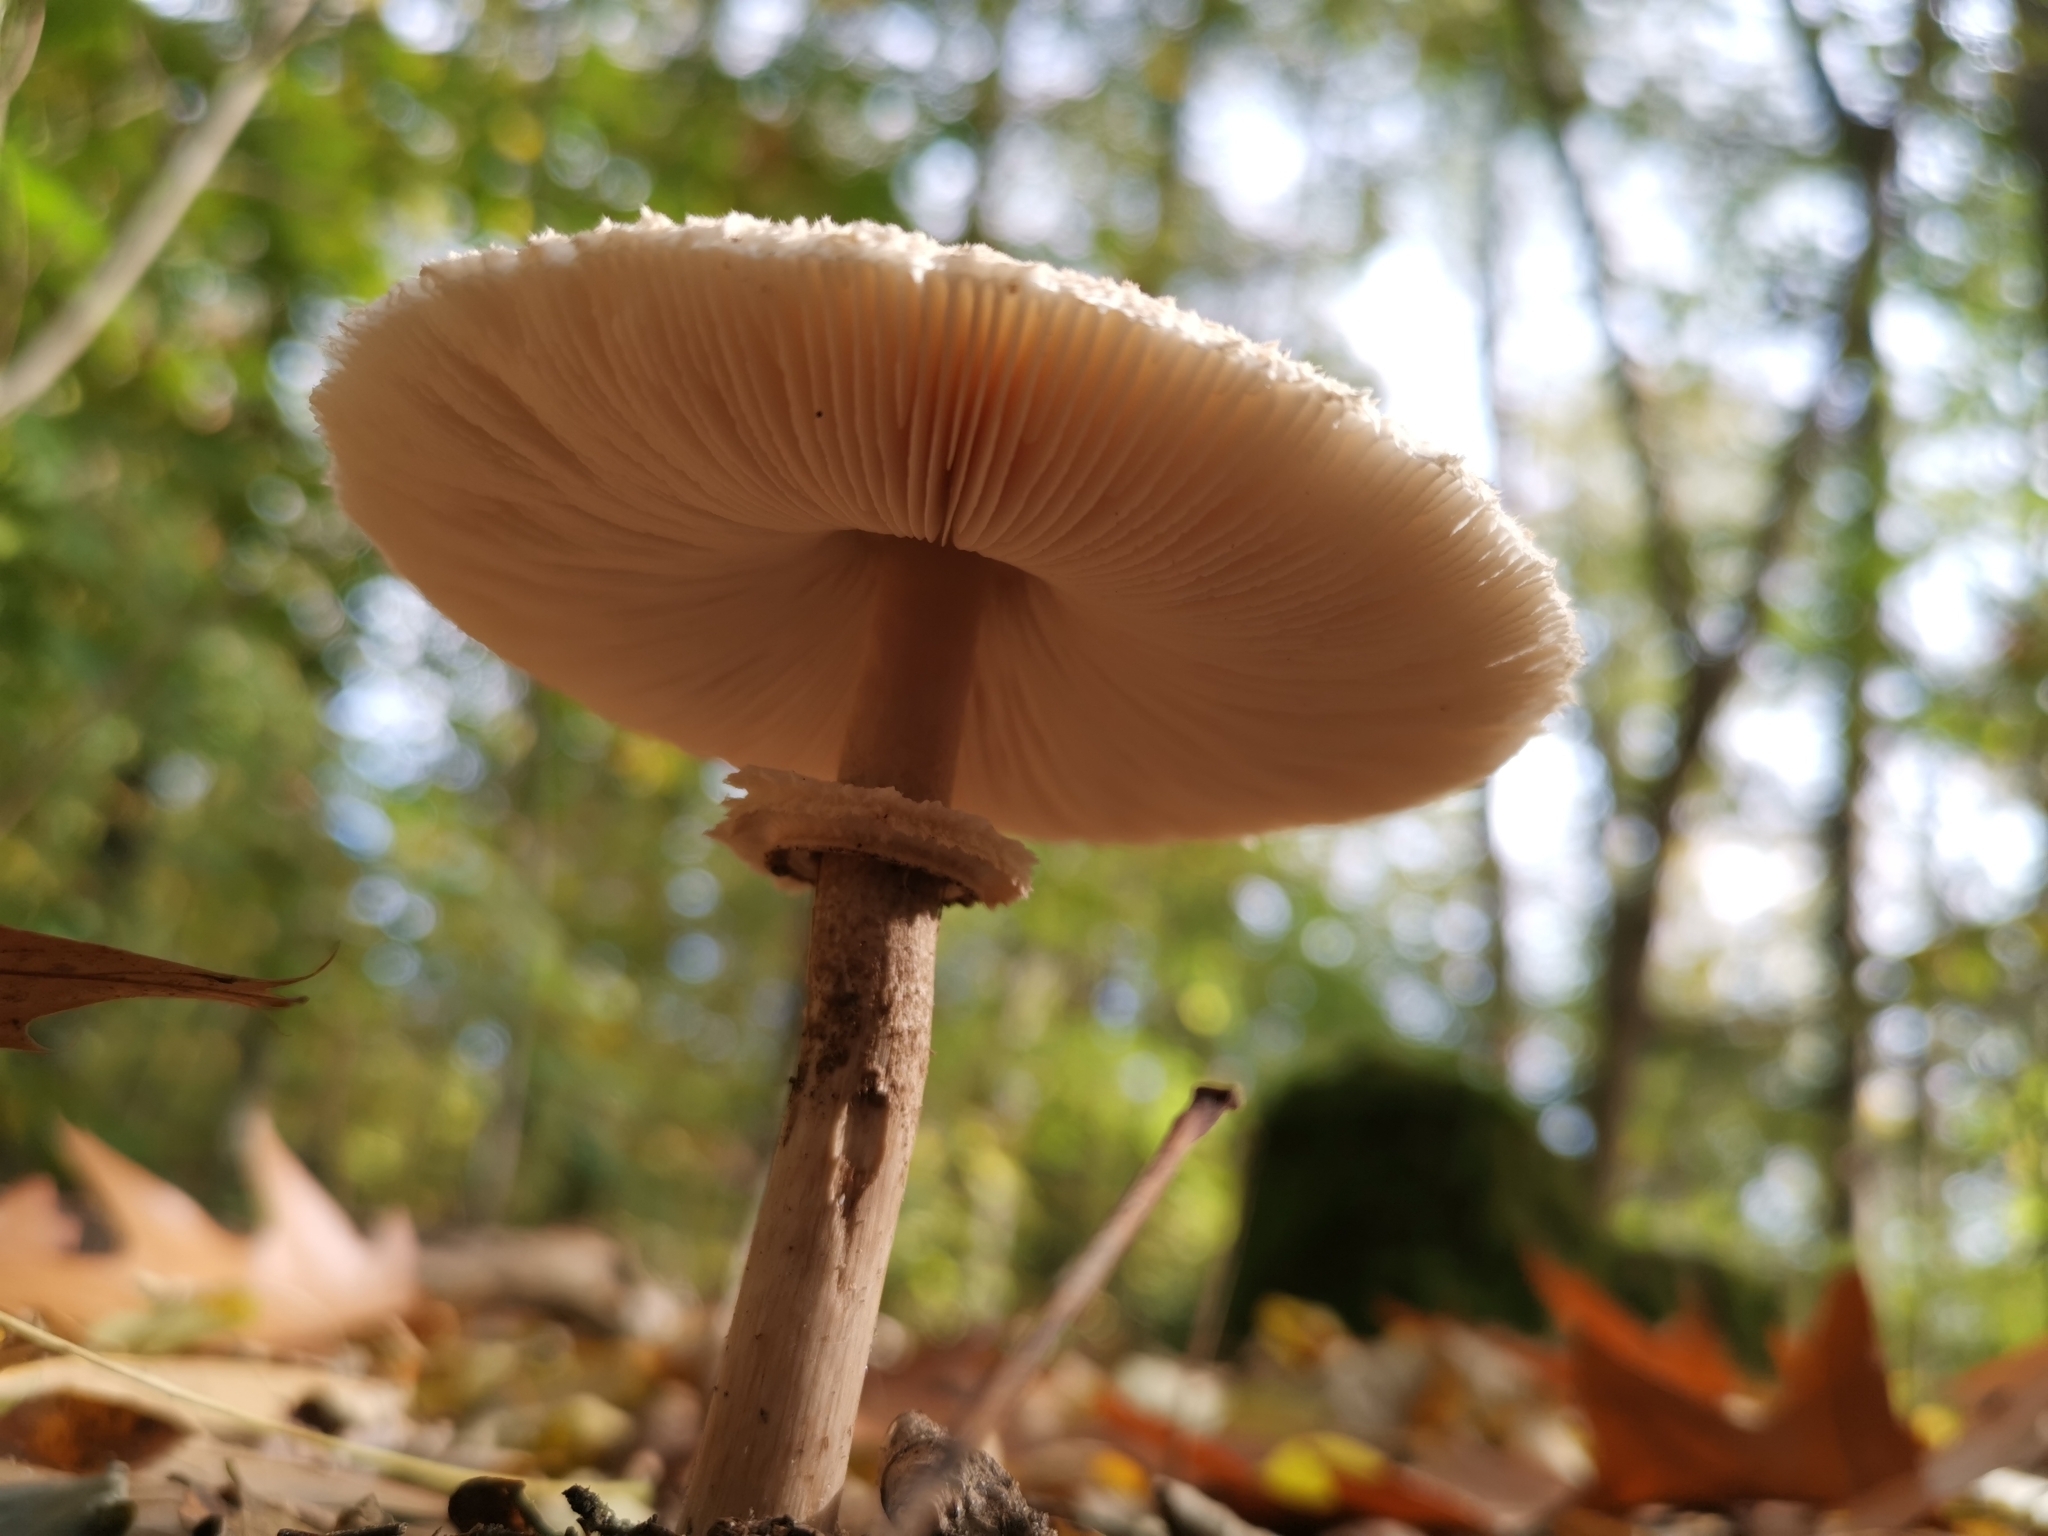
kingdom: Fungi
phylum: Basidiomycota
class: Agaricomycetes
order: Agaricales
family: Agaricaceae
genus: Macrolepiota
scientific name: Macrolepiota procera
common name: Parasol
